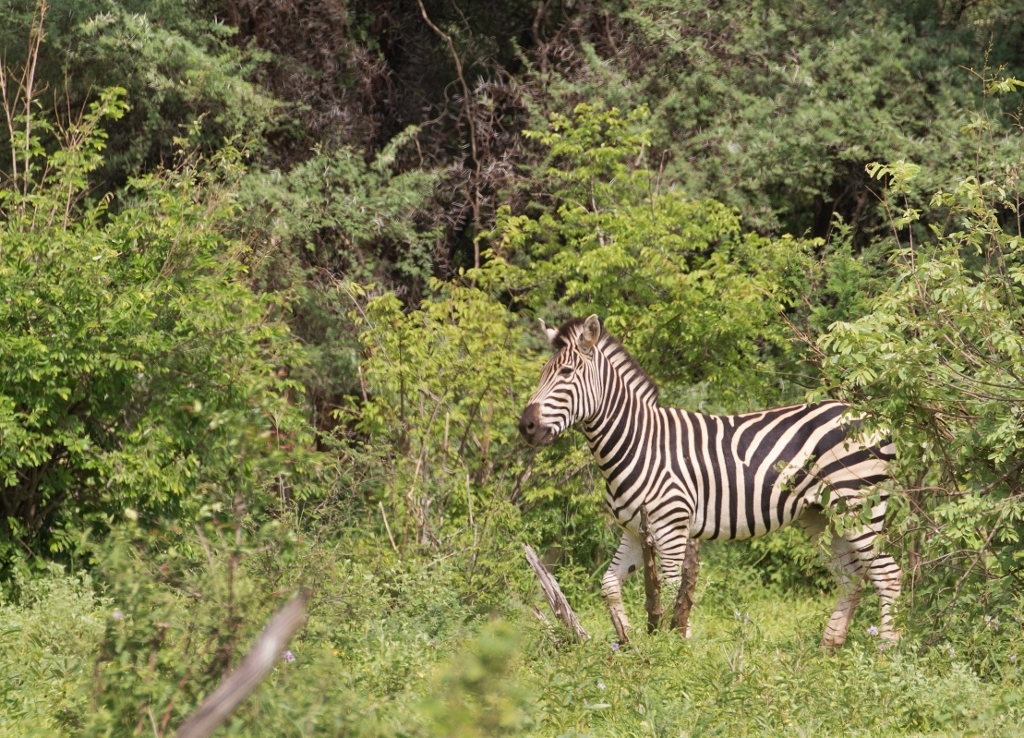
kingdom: Animalia
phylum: Chordata
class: Mammalia
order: Perissodactyla
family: Equidae
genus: Equus
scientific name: Equus quagga
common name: Plains zebra
